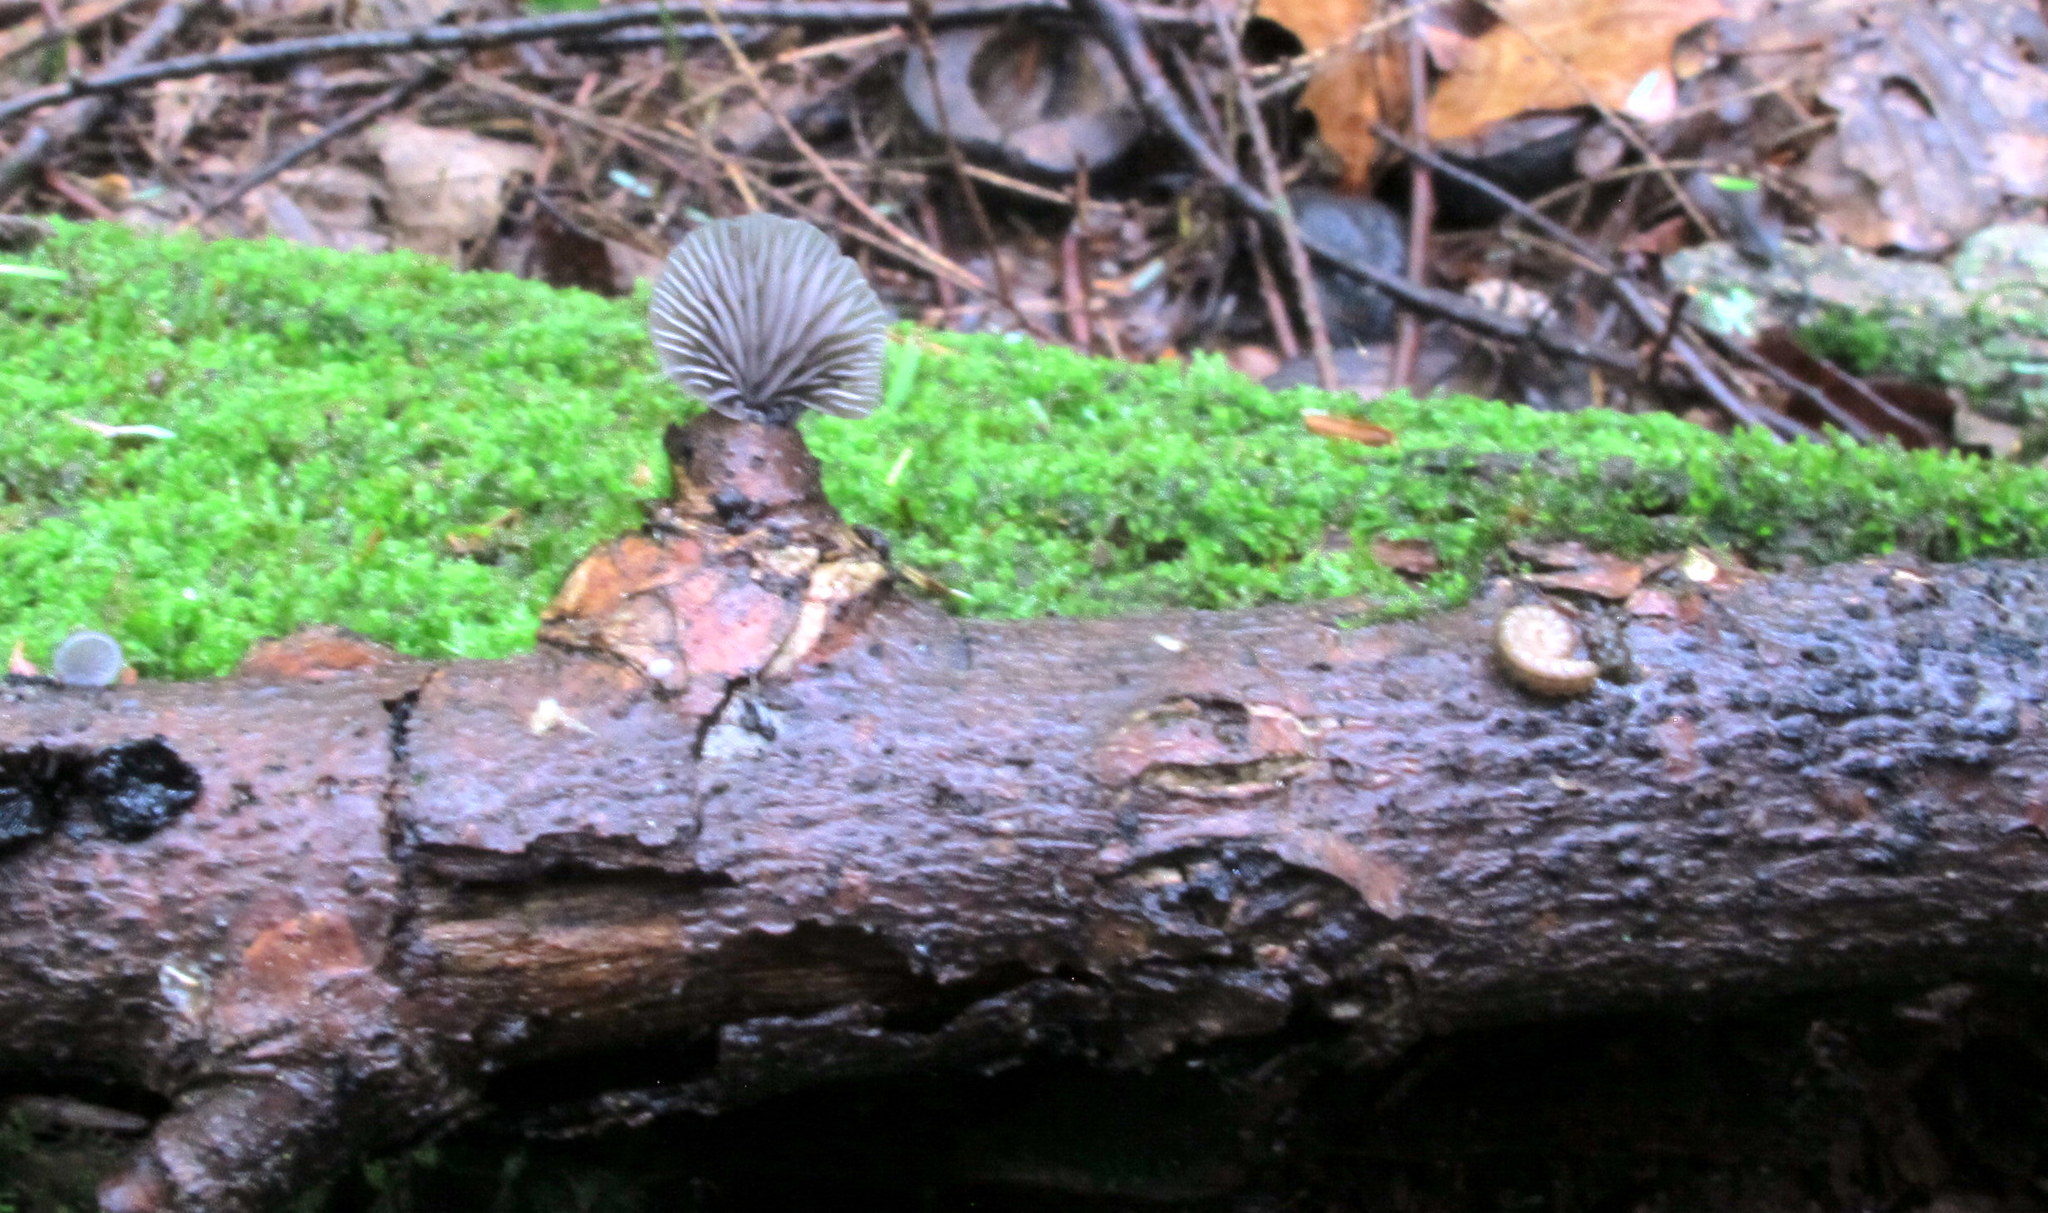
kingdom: Fungi
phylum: Basidiomycota
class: Agaricomycetes
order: Agaricales
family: Pleurotaceae
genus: Resupinatus
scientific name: Resupinatus applicatus
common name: Smoked oysterling
